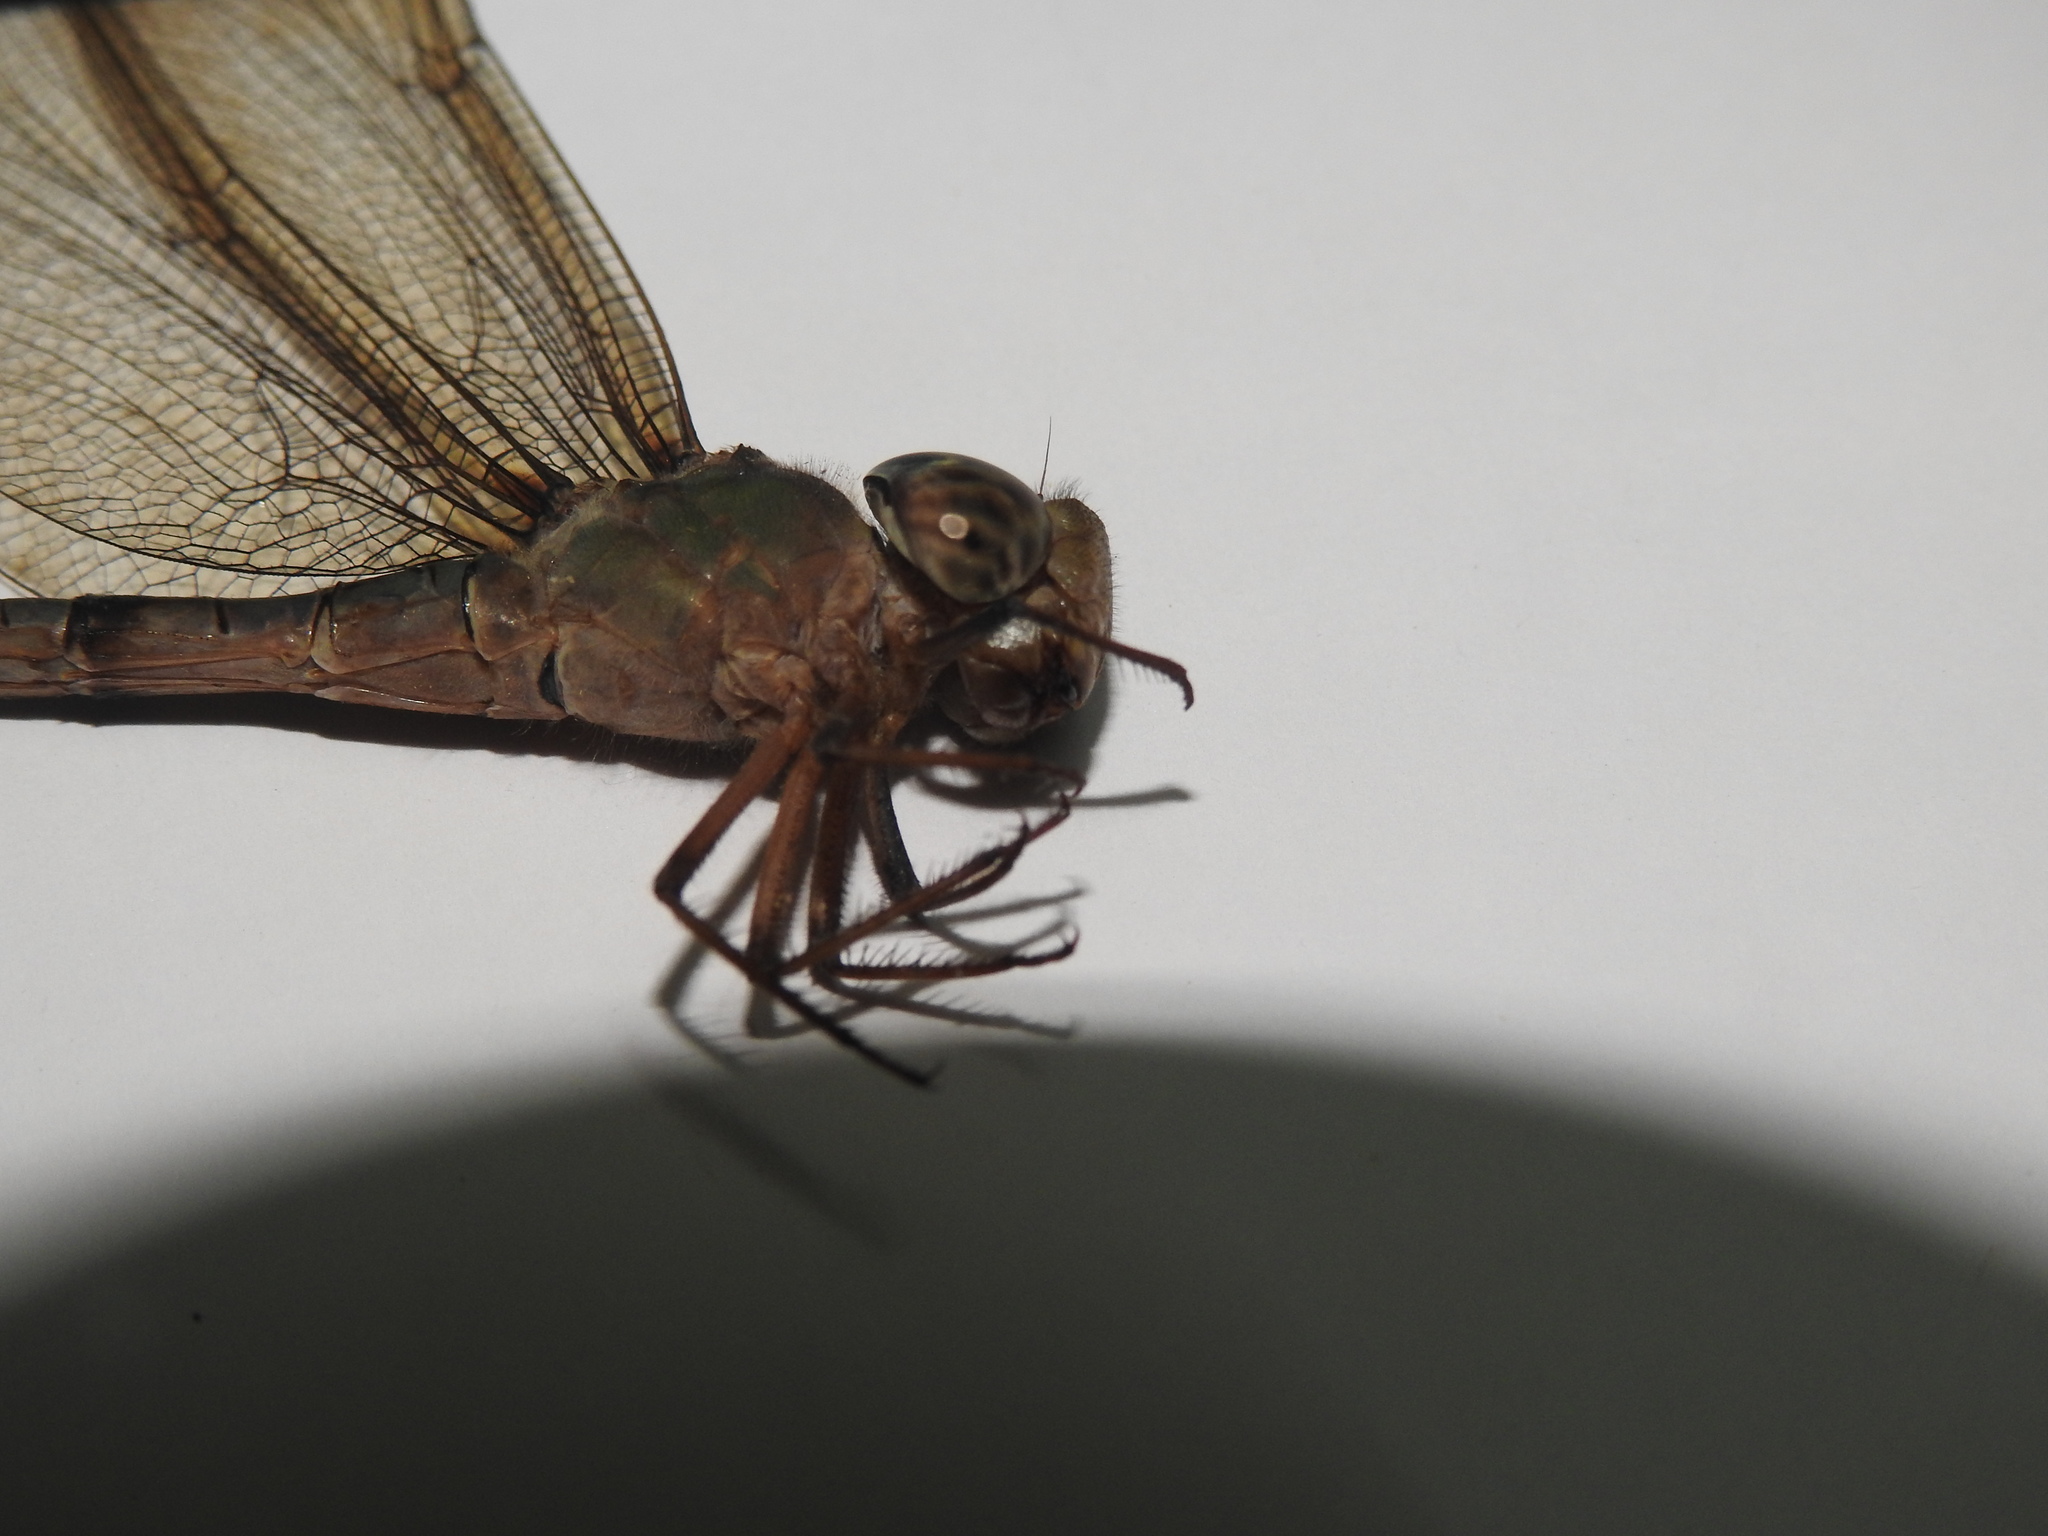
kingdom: Animalia
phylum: Arthropoda
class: Insecta
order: Odonata
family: Aeshnidae
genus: Gynacantha
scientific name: Gynacantha dravida
